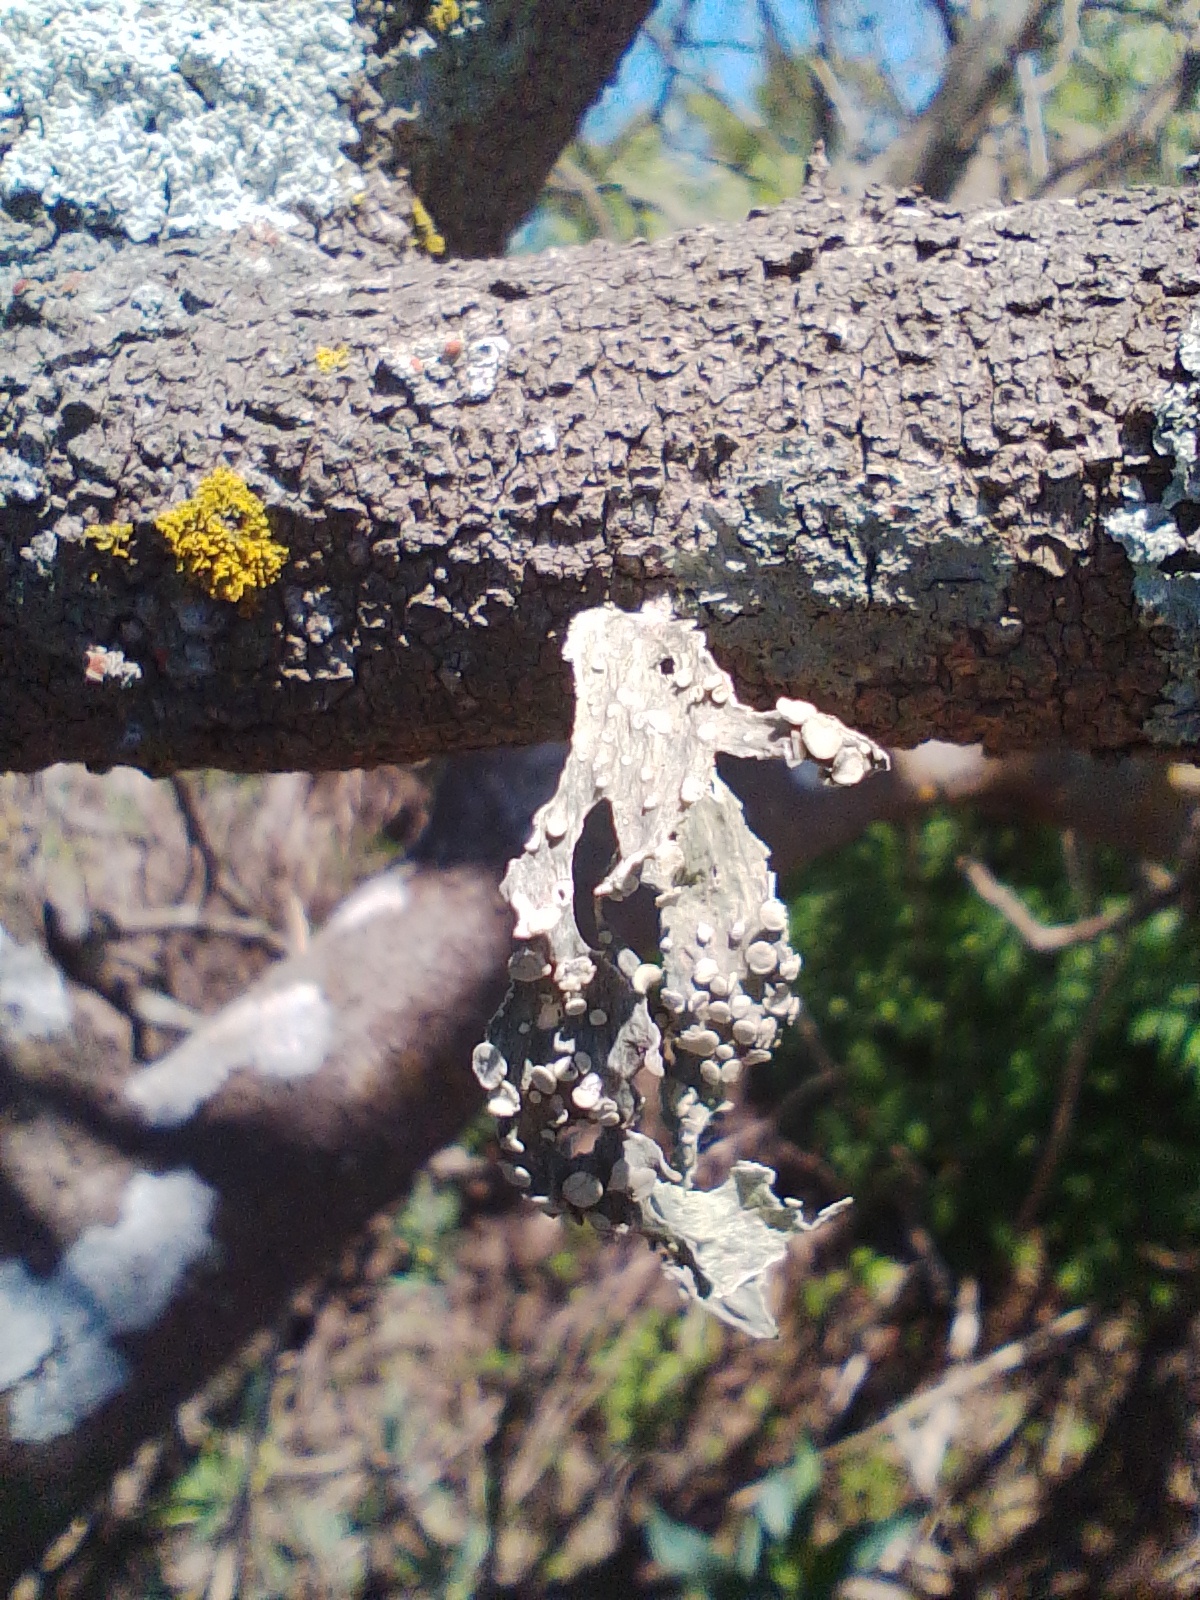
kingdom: Fungi
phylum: Ascomycota
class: Lecanoromycetes
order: Lecanorales
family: Ramalinaceae
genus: Ramalina
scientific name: Ramalina celastri
